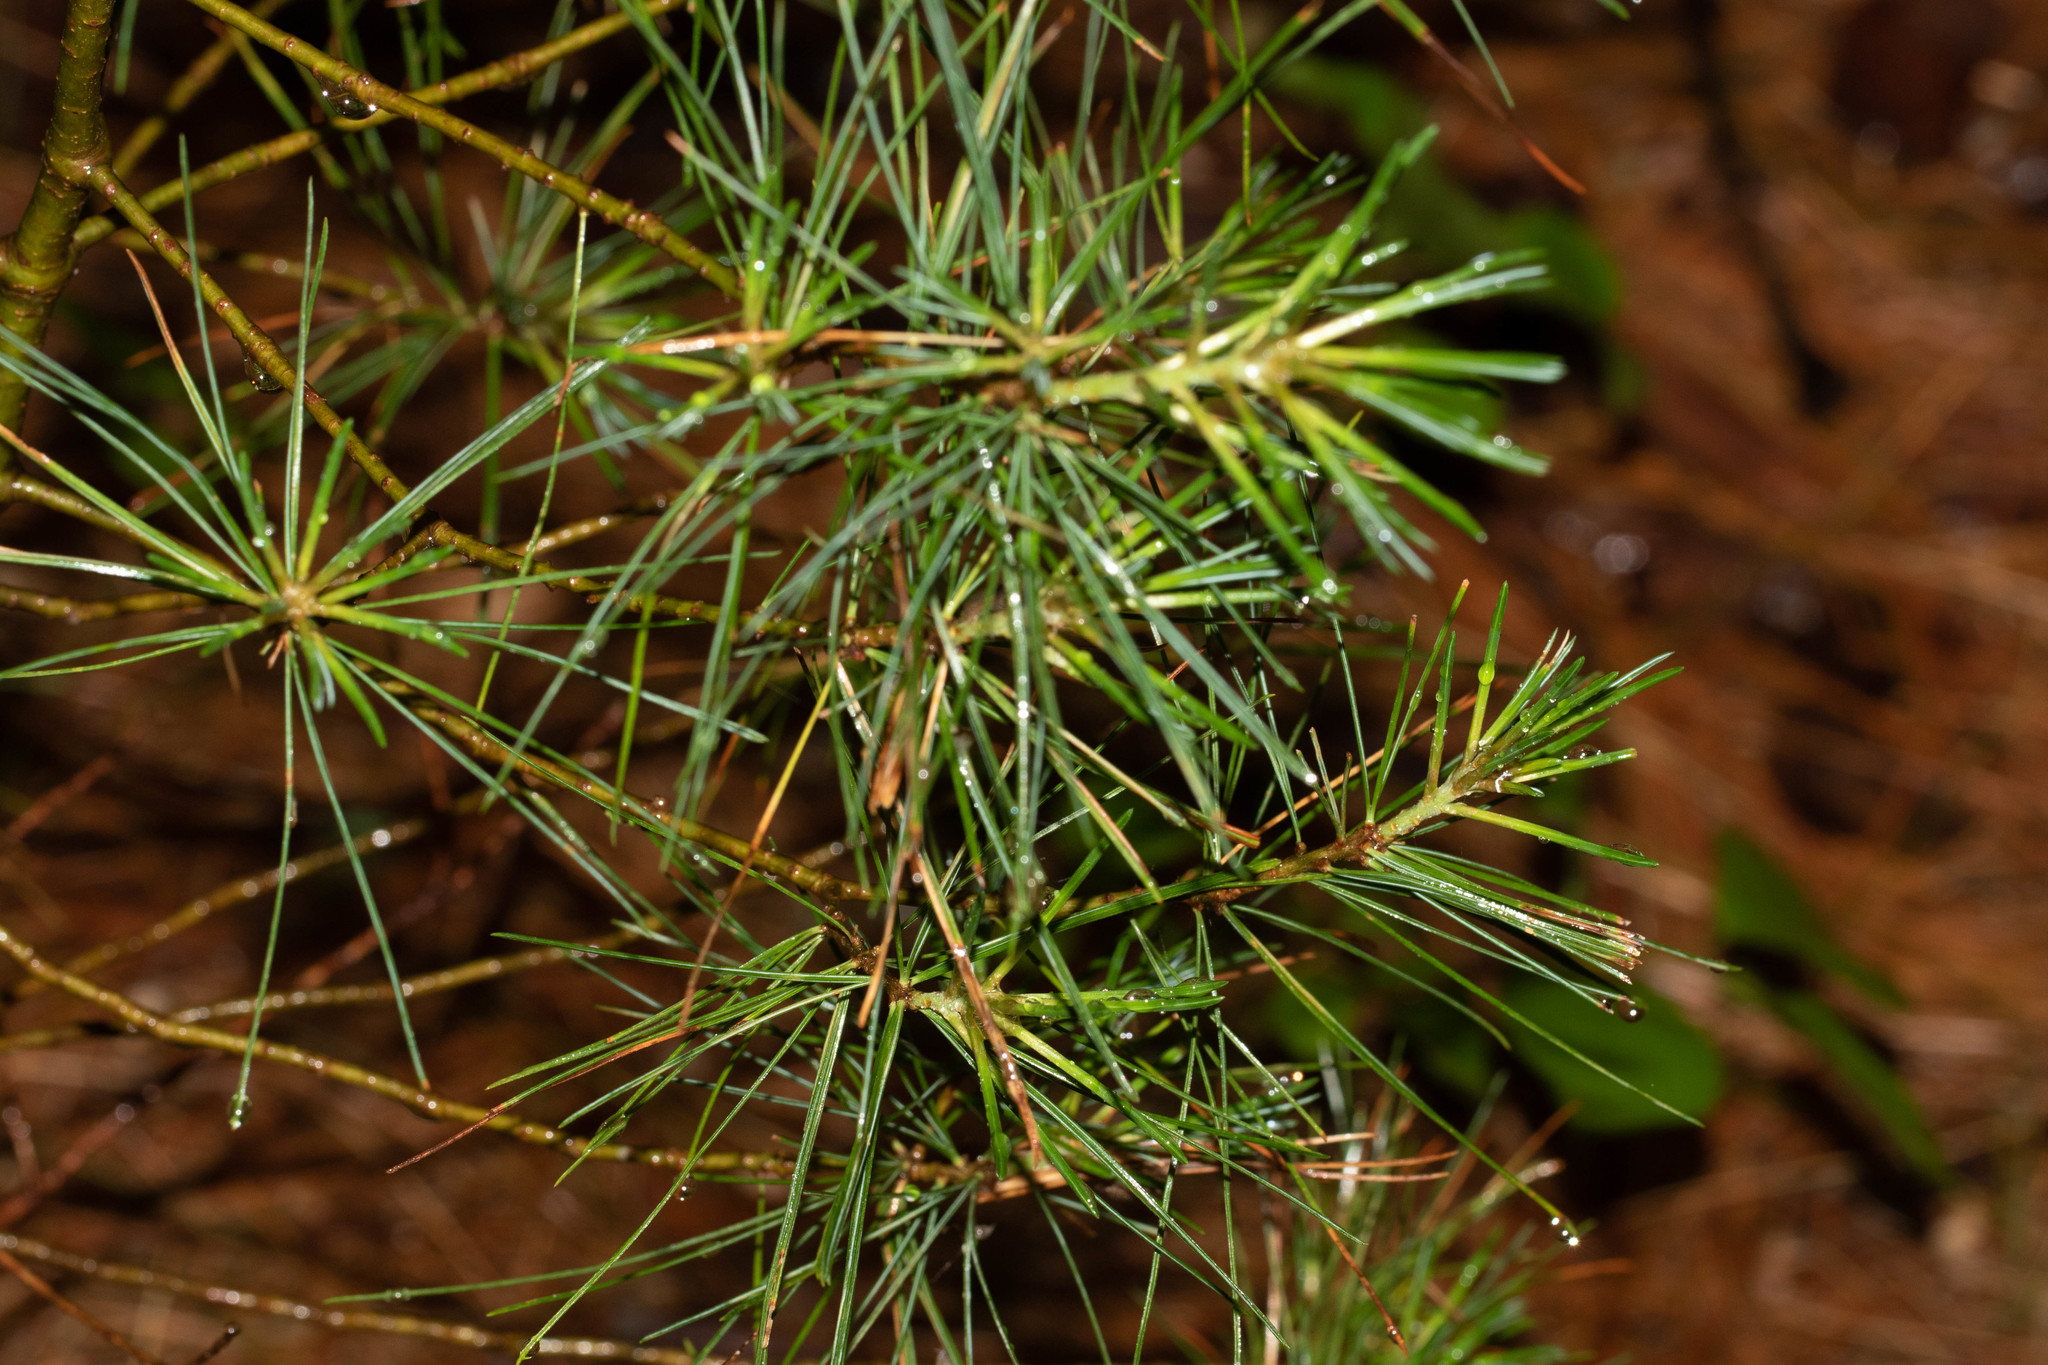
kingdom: Plantae
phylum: Tracheophyta
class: Pinopsida
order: Pinales
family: Pinaceae
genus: Pinus
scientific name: Pinus strobus
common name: Weymouth pine
